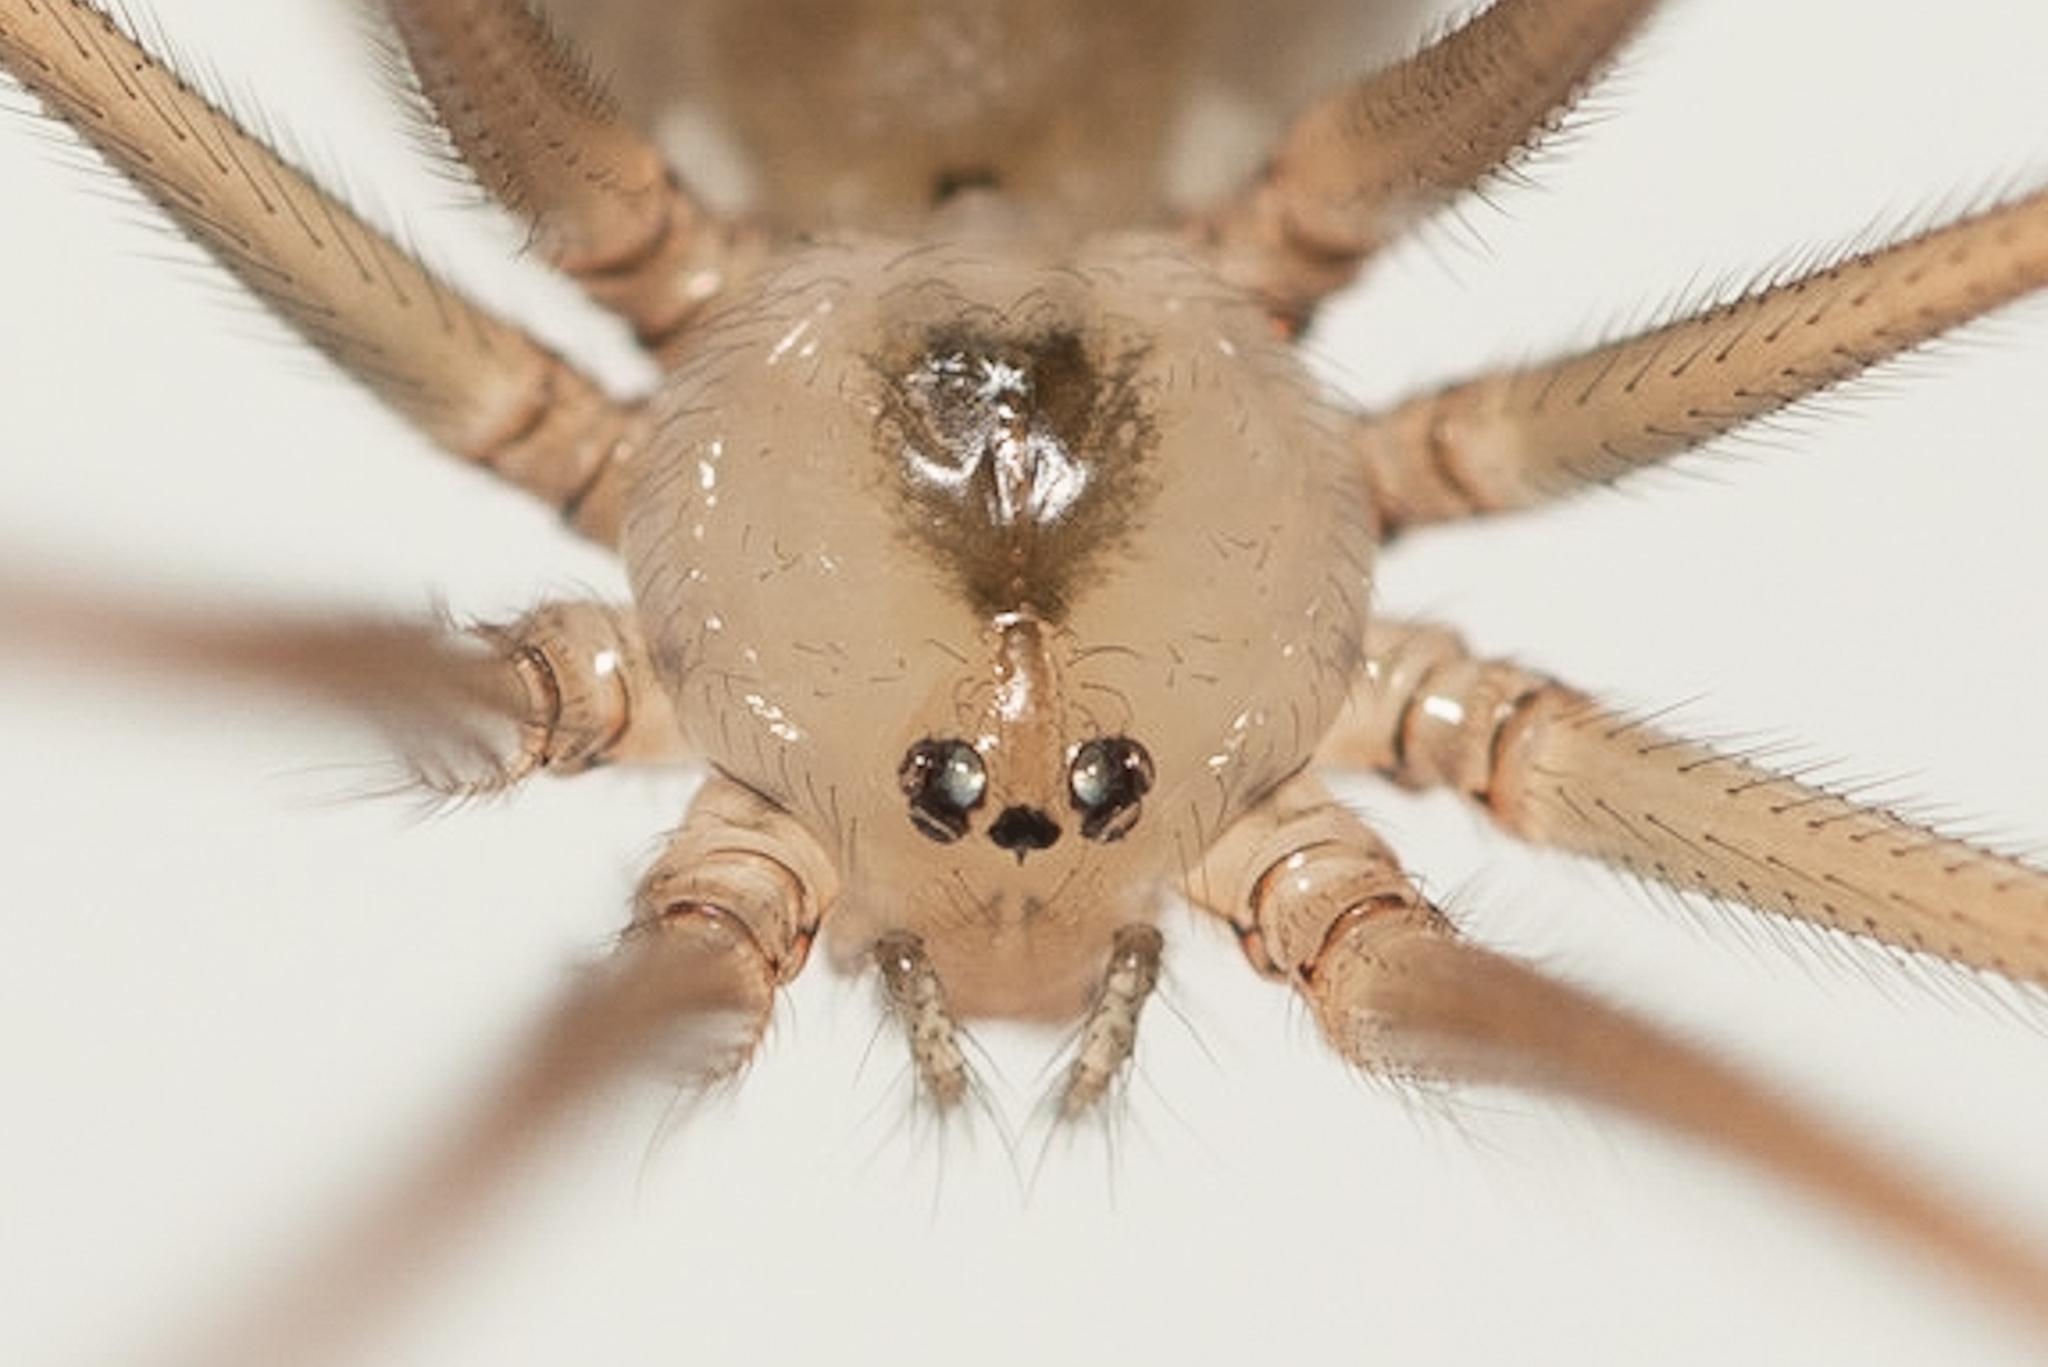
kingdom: Animalia
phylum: Arthropoda
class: Arachnida
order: Araneae
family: Pholcidae
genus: Pholcus
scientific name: Pholcus phalangioides
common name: Longbodied cellar spider
